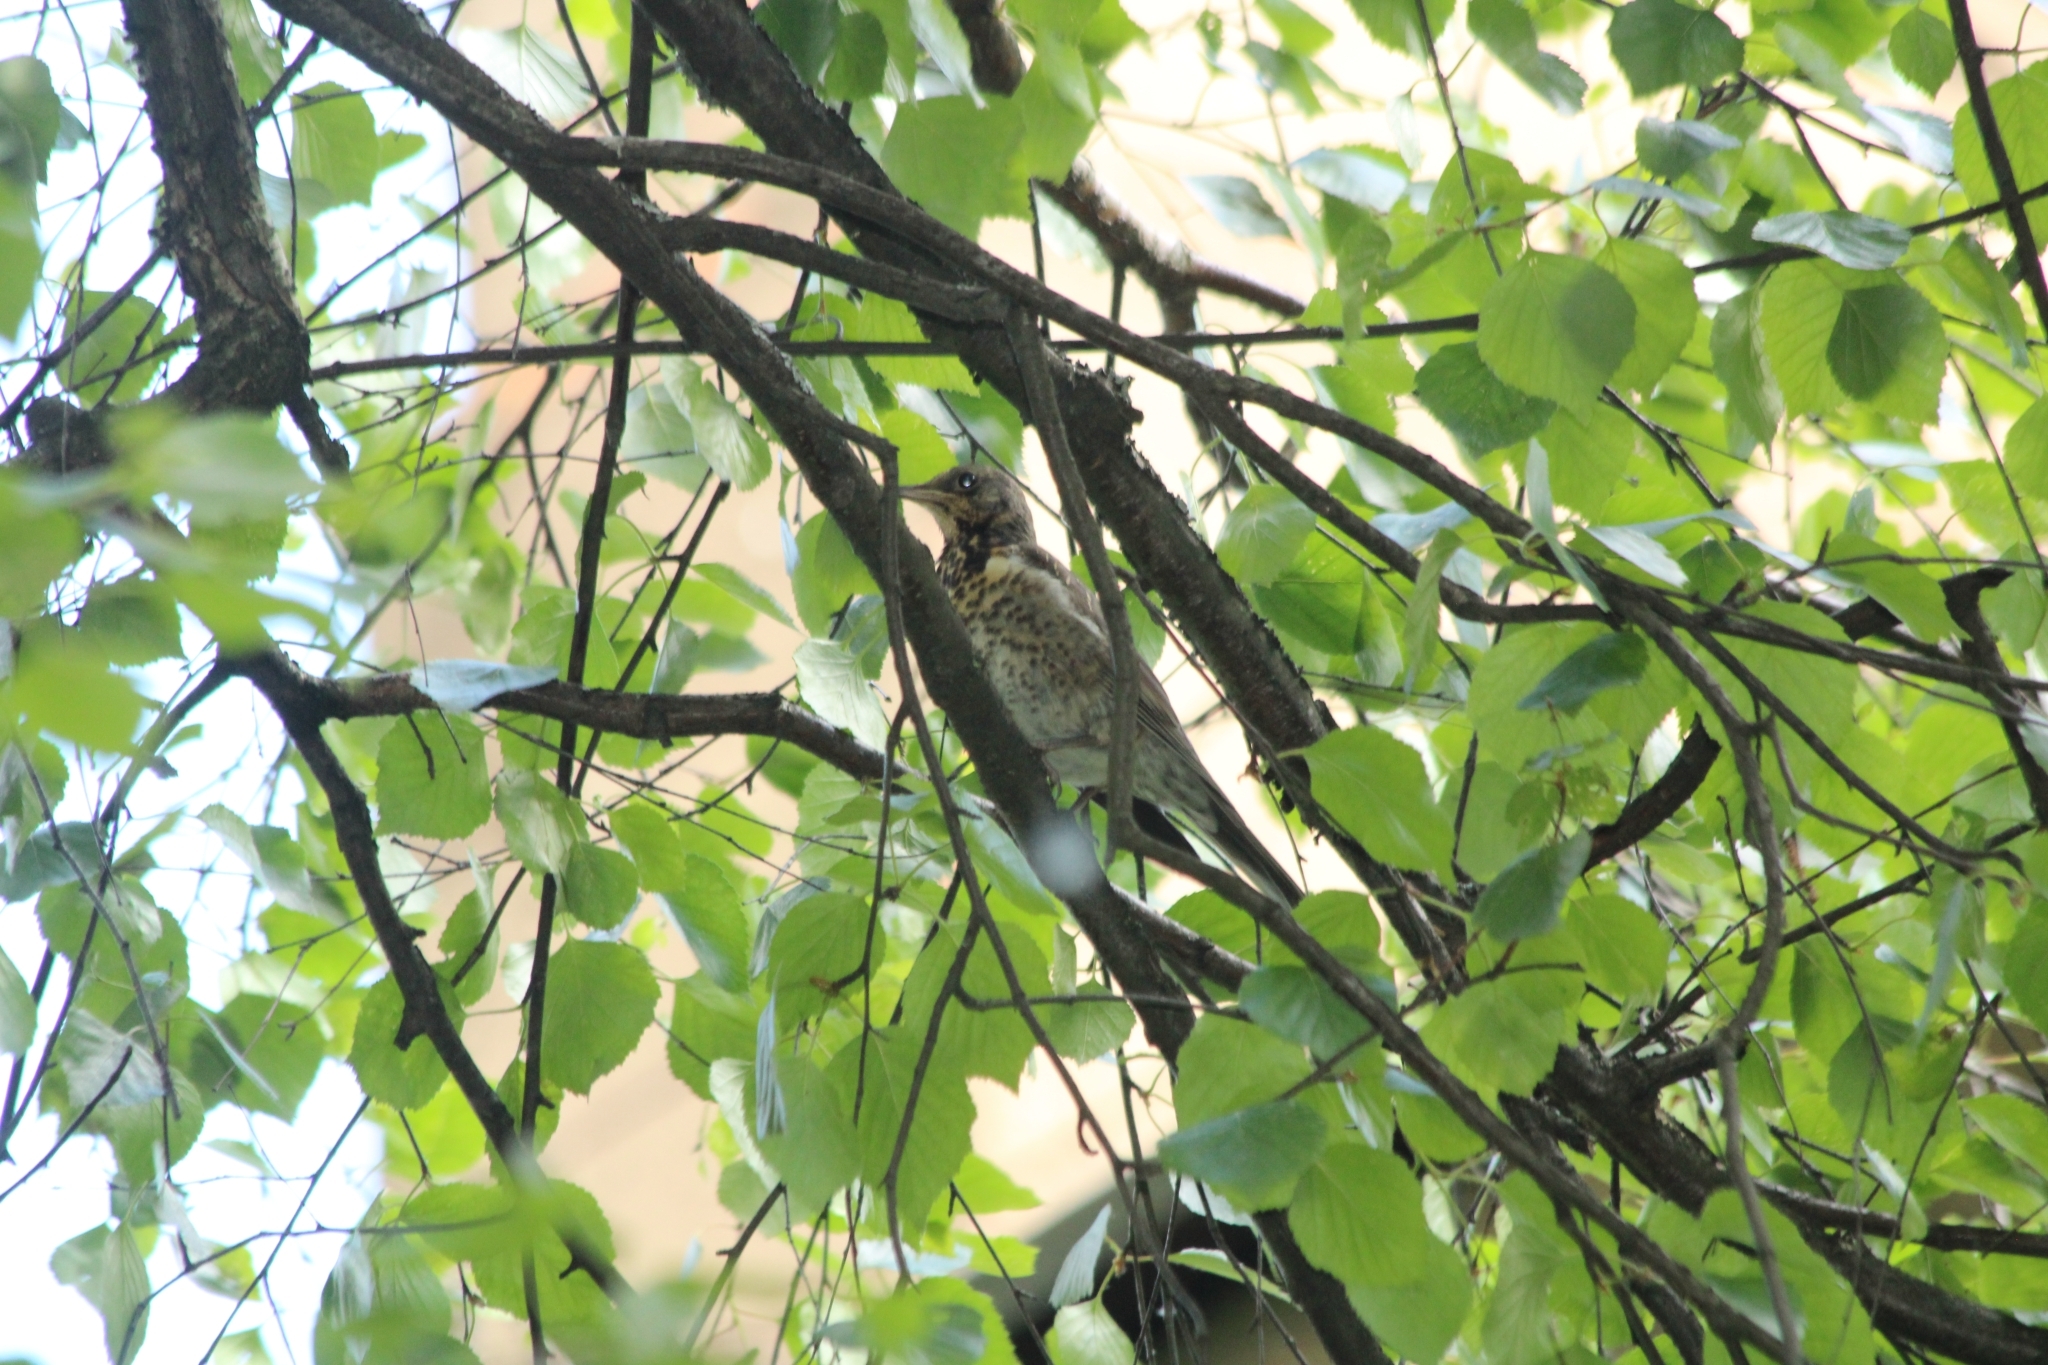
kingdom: Animalia
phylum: Chordata
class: Aves
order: Passeriformes
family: Turdidae
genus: Turdus
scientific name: Turdus pilaris
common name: Fieldfare
